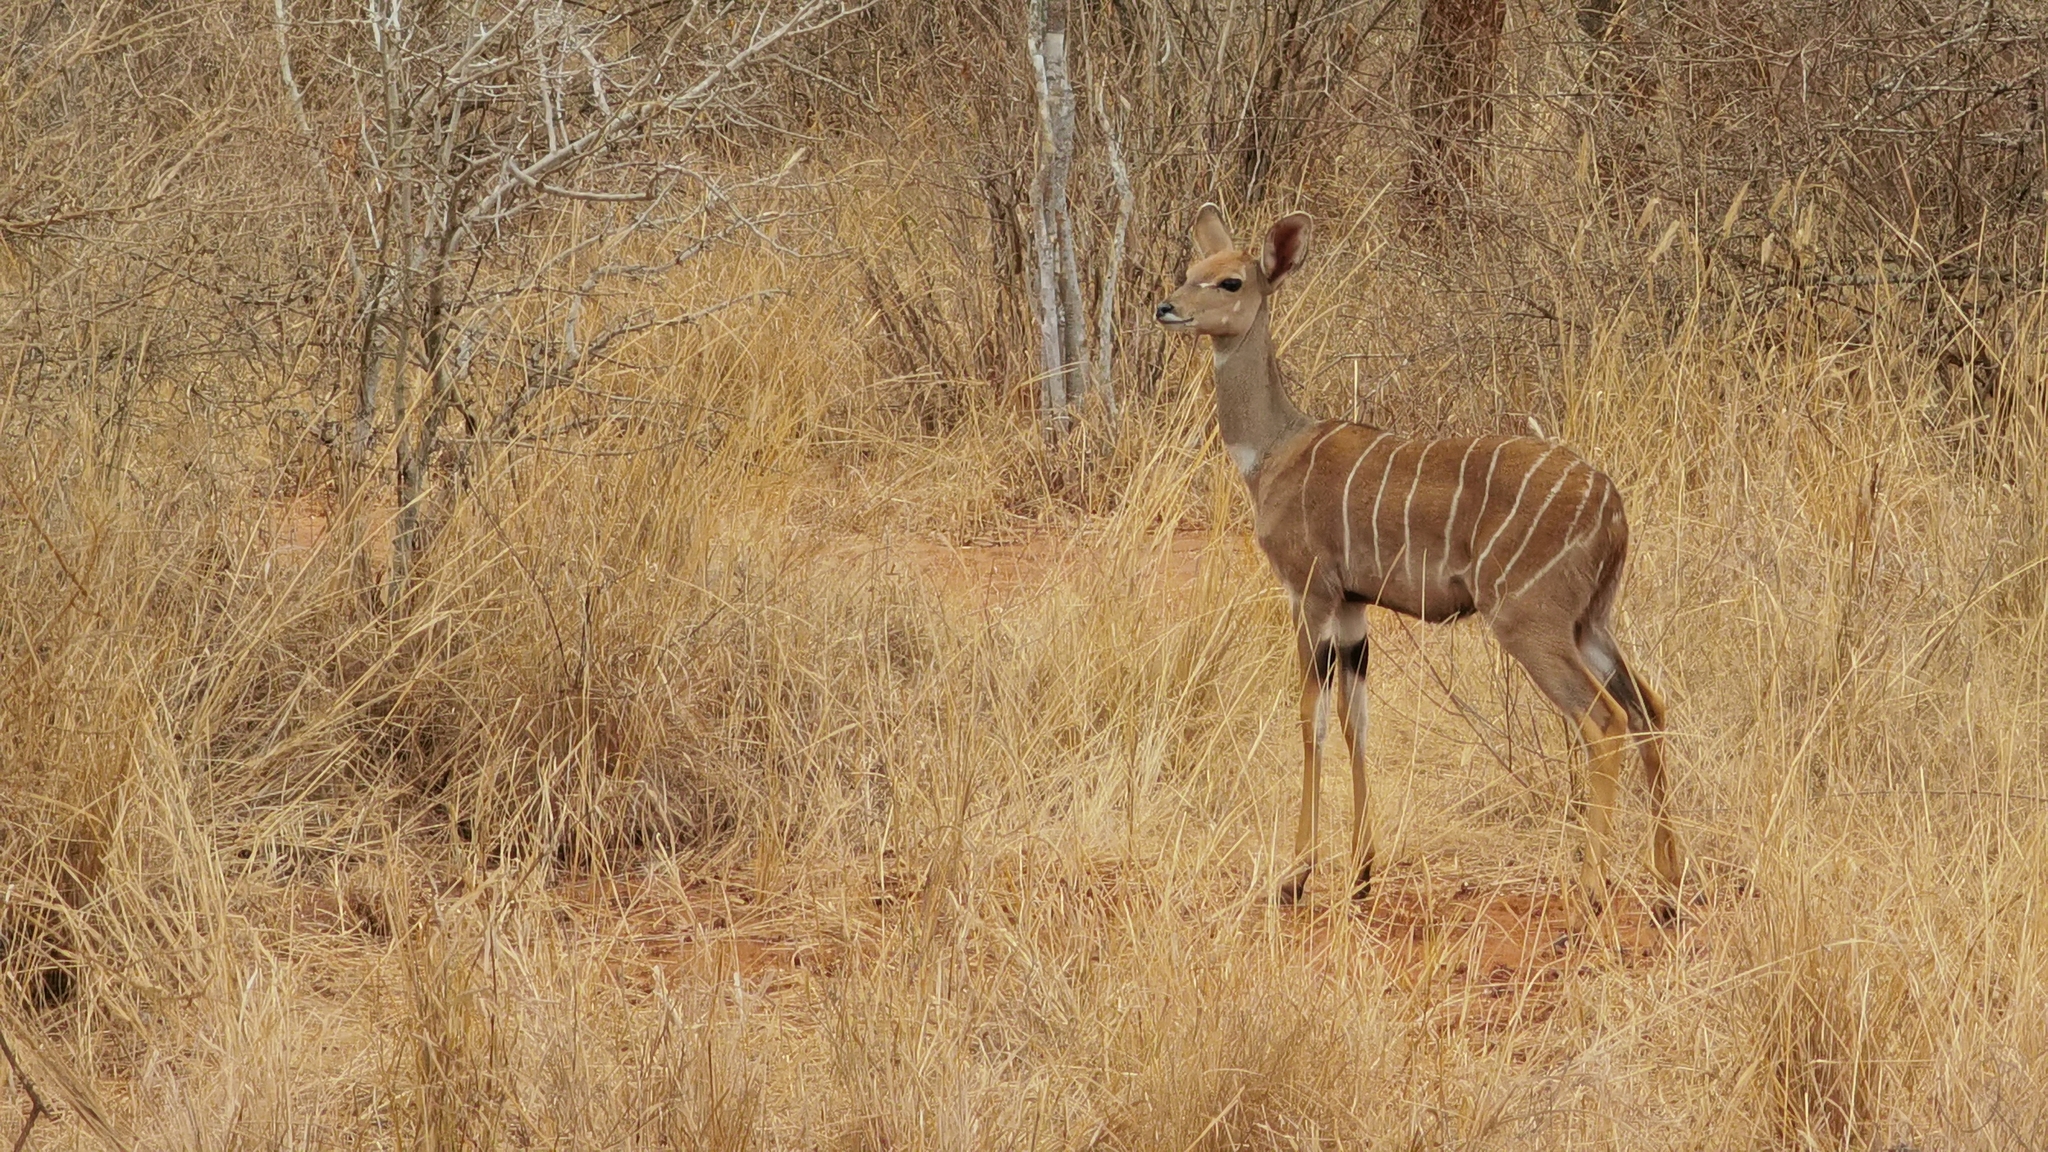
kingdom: Animalia
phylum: Chordata
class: Mammalia
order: Artiodactyla
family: Bovidae
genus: Tragelaphus
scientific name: Tragelaphus imberbis
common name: Lesser kudu
